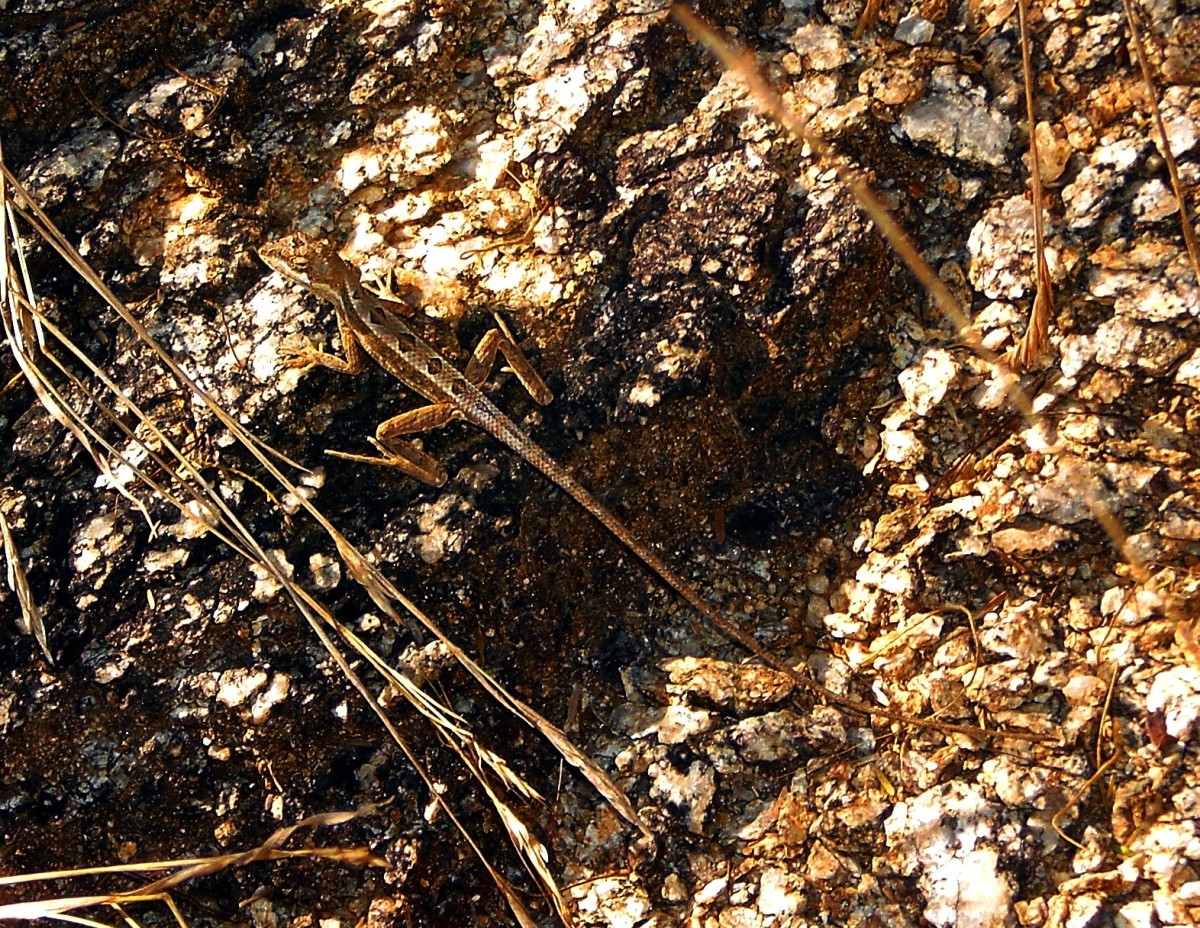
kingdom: Animalia
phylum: Chordata
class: Squamata
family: Agamidae
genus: Sitana
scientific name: Sitana ponticeriana
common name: Pondichéry fan throated lizard
